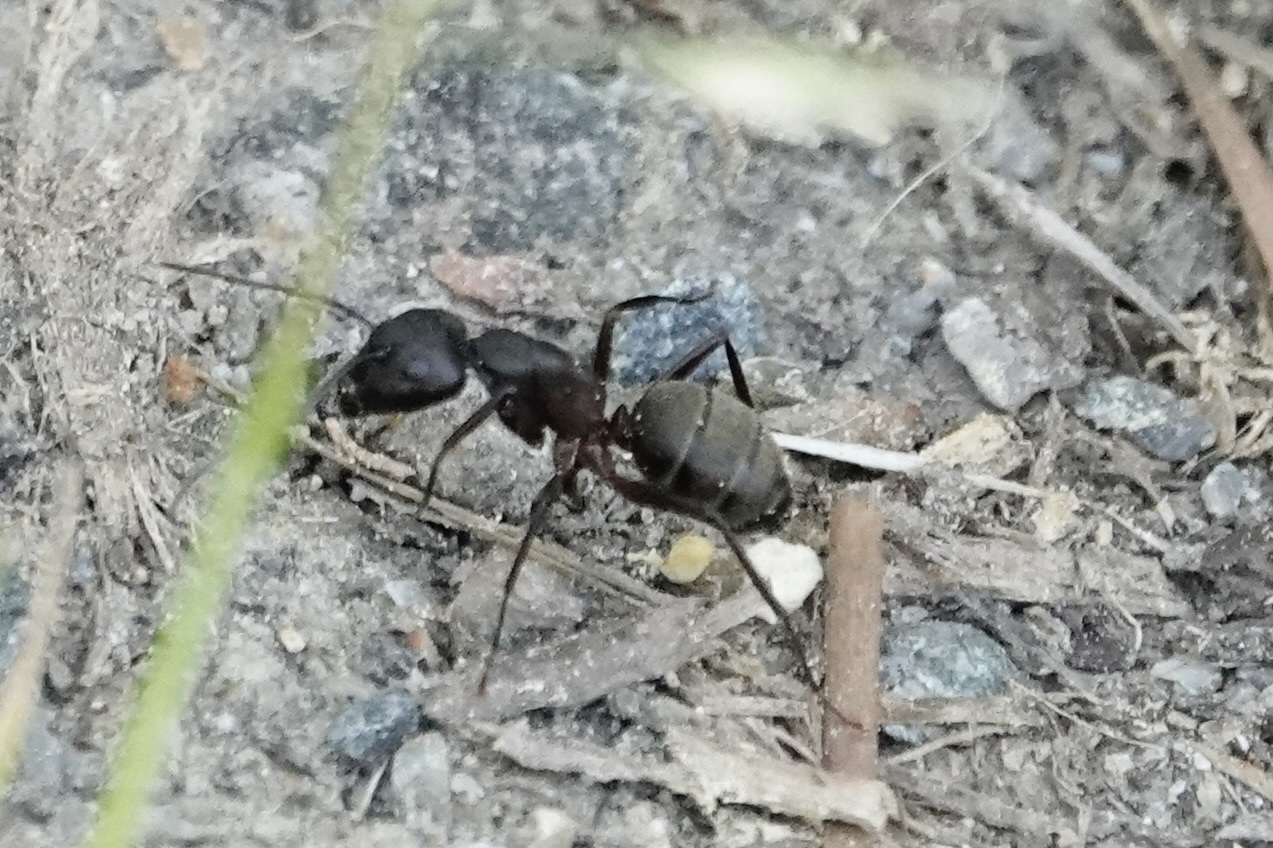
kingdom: Animalia
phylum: Arthropoda
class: Insecta
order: Hymenoptera
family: Formicidae
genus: Camponotus
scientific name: Camponotus chromaiodes
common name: Red carpenter ant
